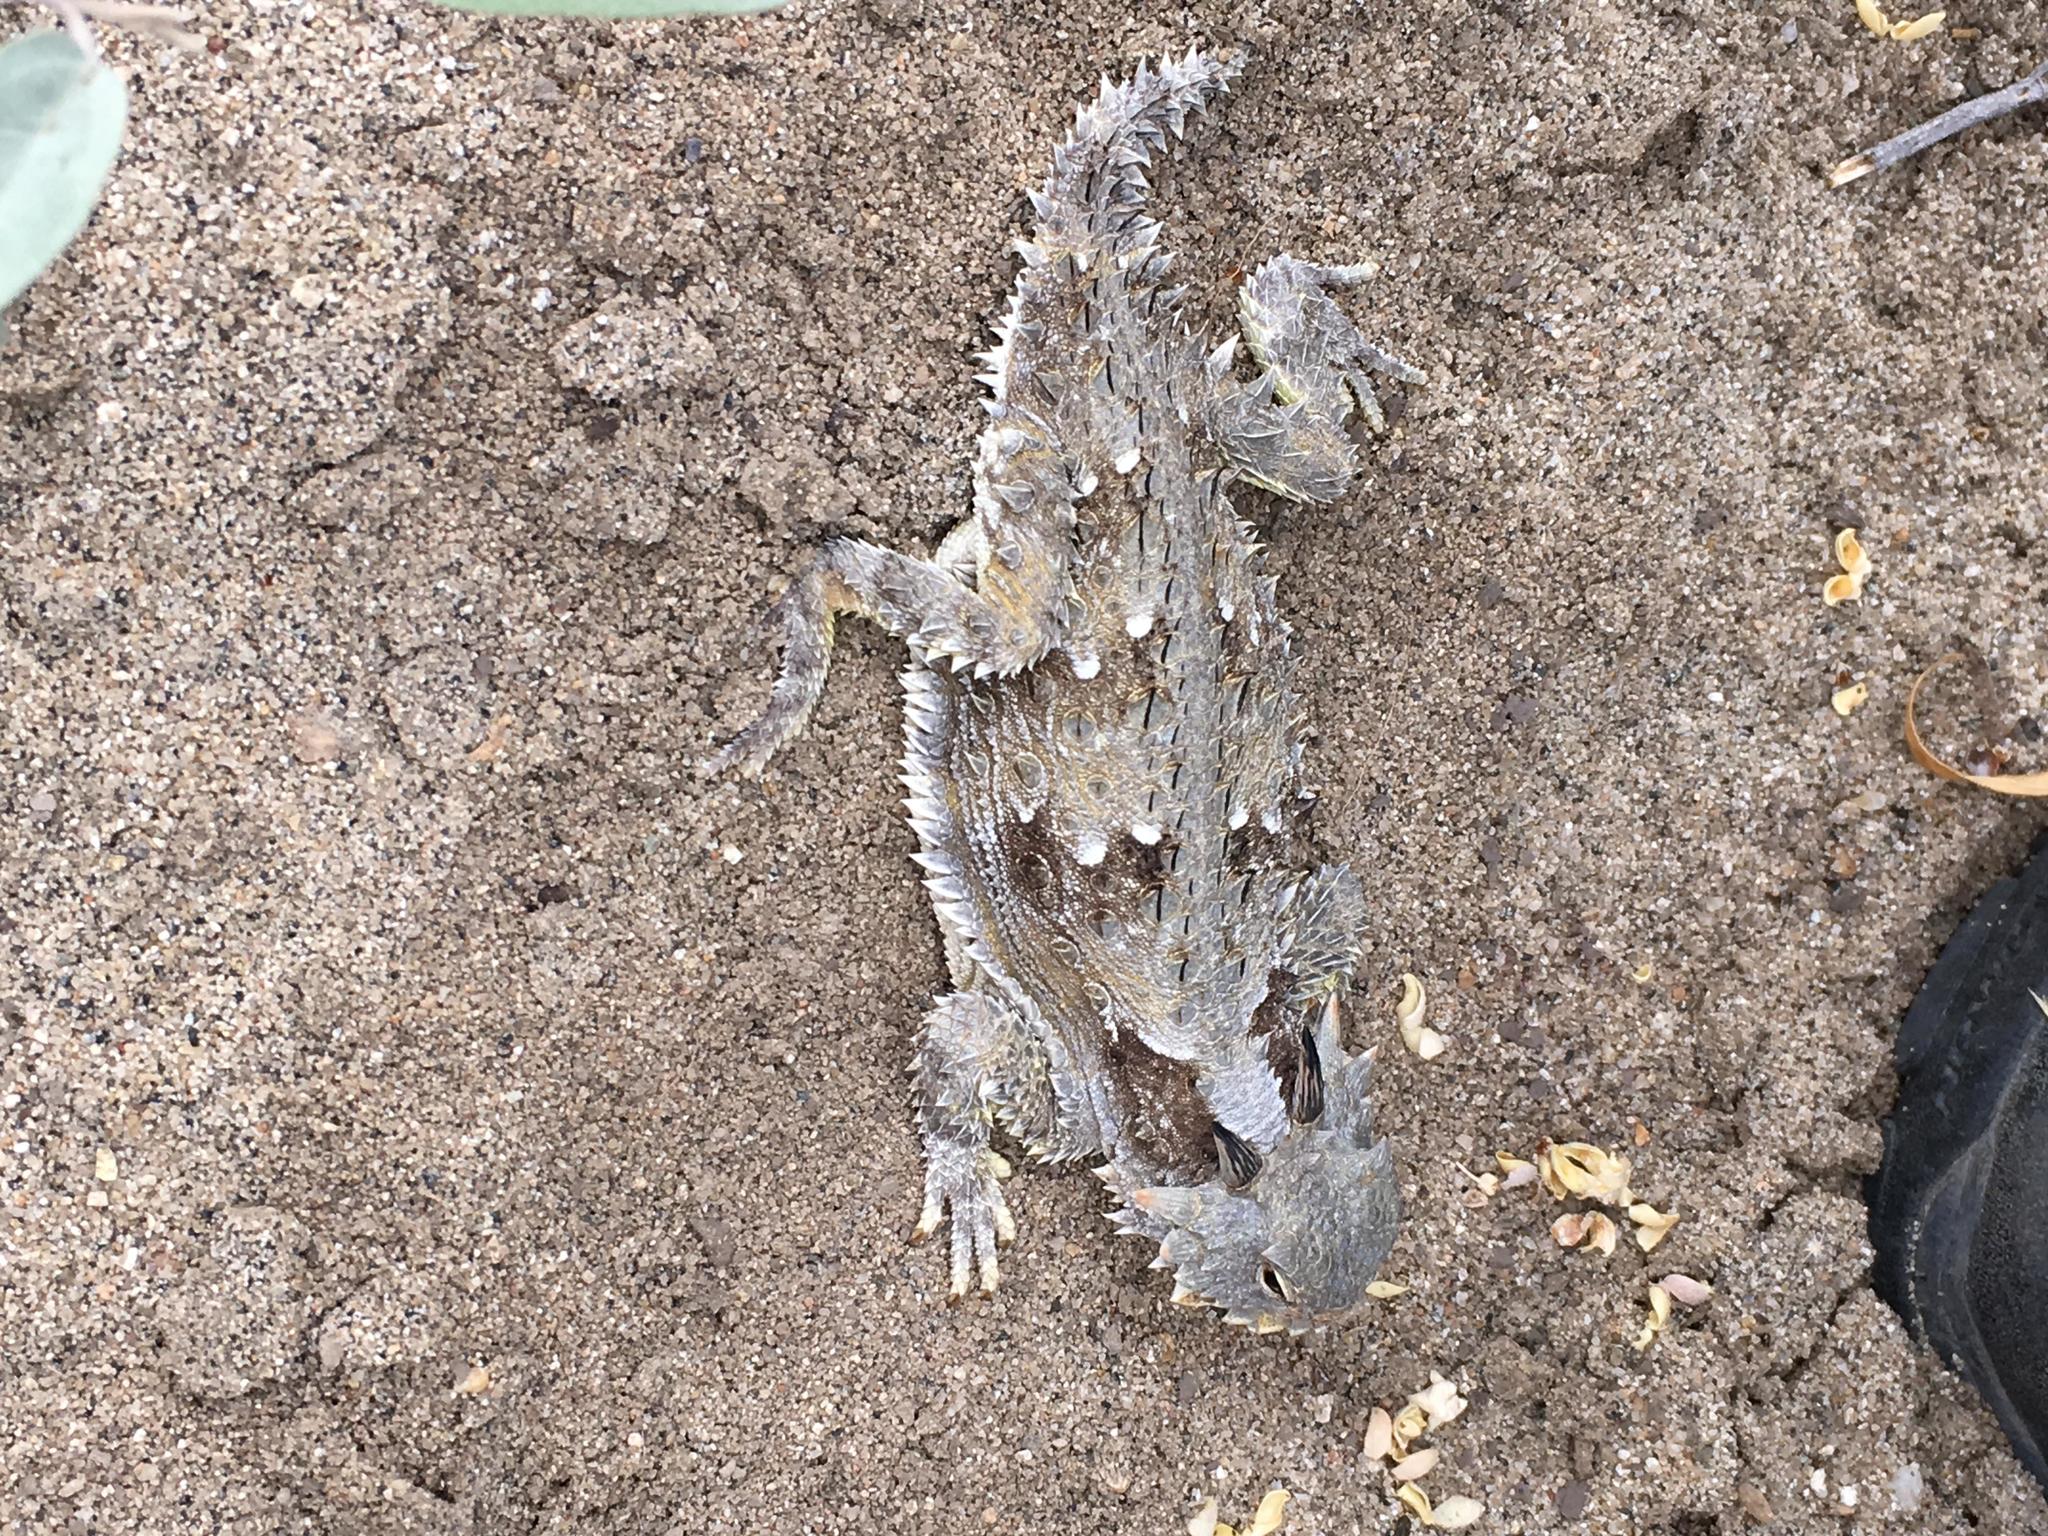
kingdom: Animalia
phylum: Chordata
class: Squamata
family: Phrynosomatidae
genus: Phrynosoma
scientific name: Phrynosoma blainvillii
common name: San diego horned lizard
